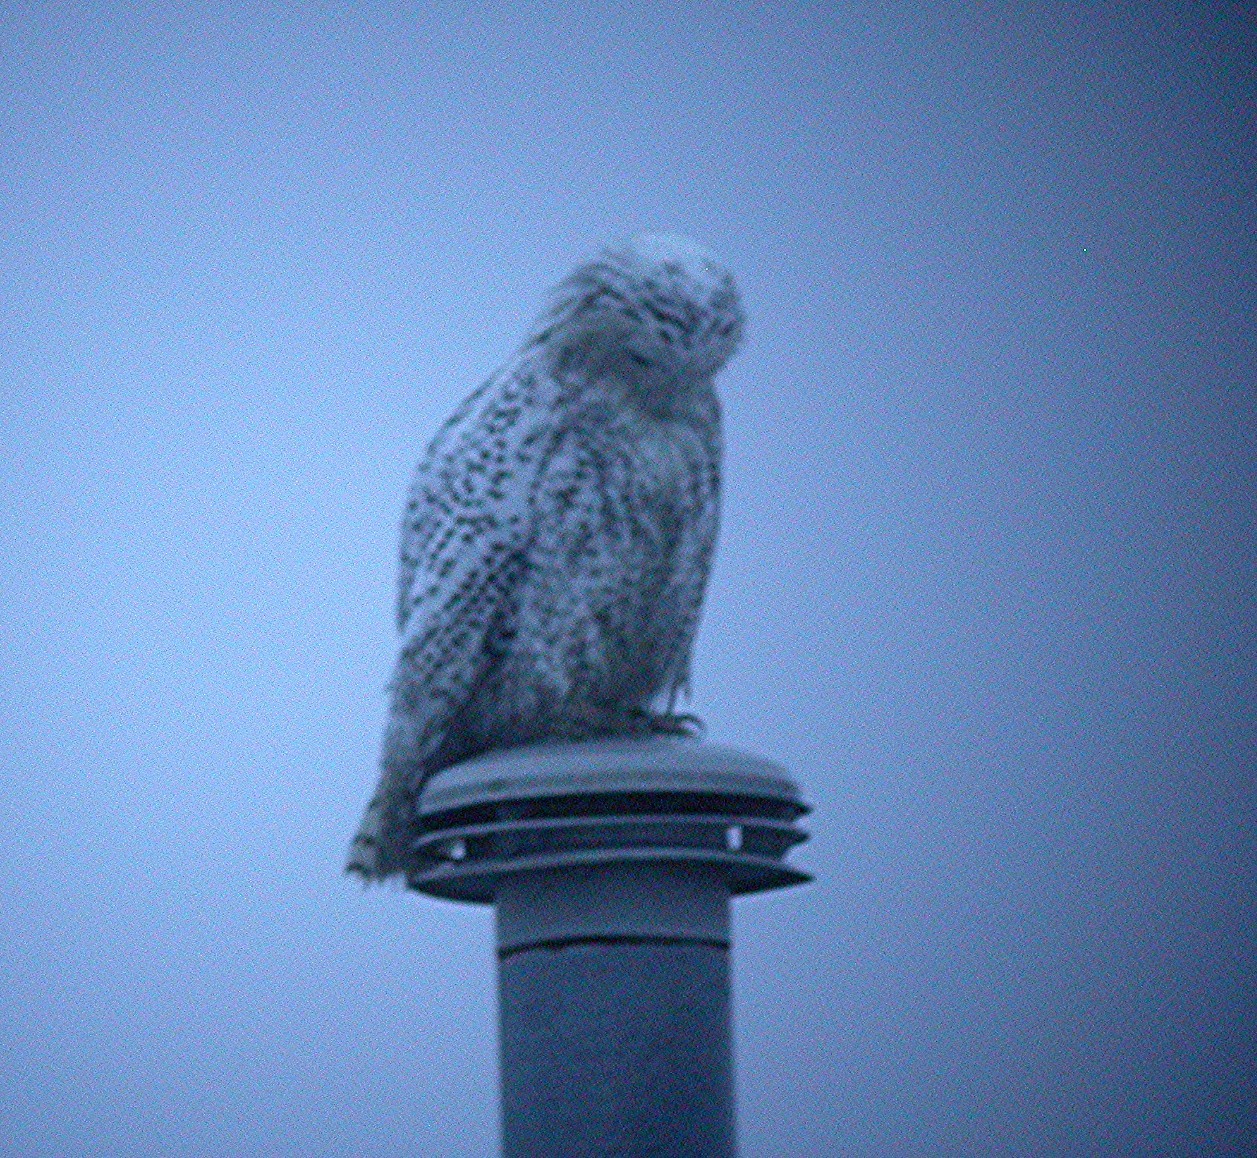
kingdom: Animalia
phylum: Chordata
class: Aves
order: Strigiformes
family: Strigidae
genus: Bubo
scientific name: Bubo scandiacus
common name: Snowy owl
